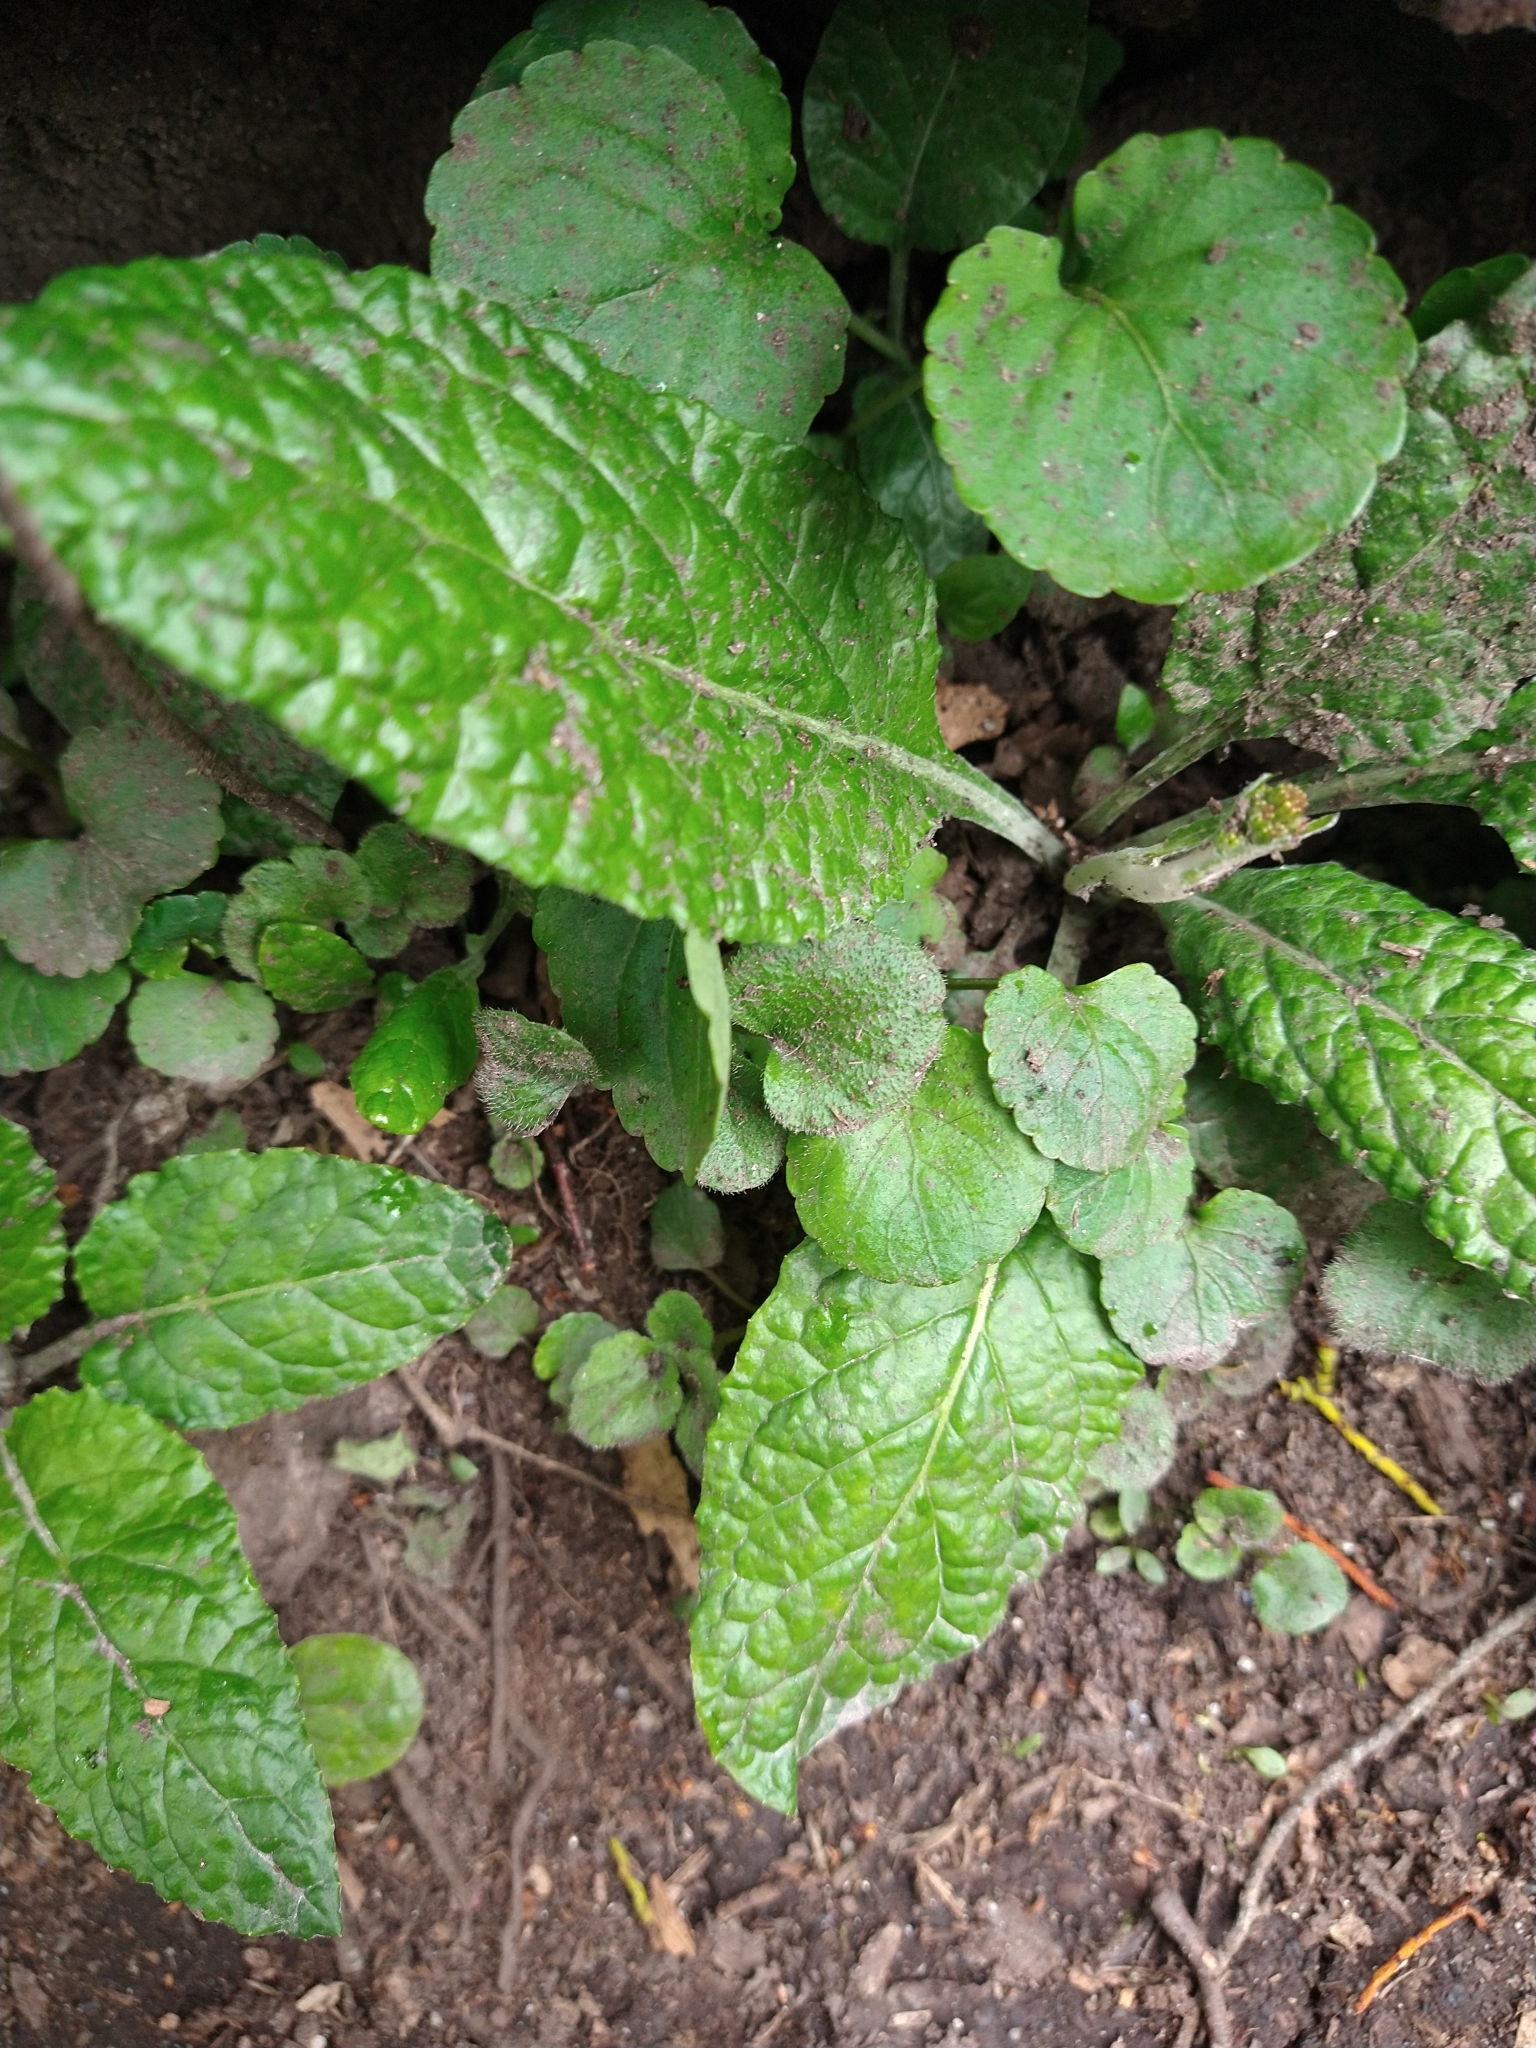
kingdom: Plantae
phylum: Tracheophyta
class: Magnoliopsida
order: Asterales
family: Asteraceae
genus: Adenocaulon
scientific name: Adenocaulon chilense
